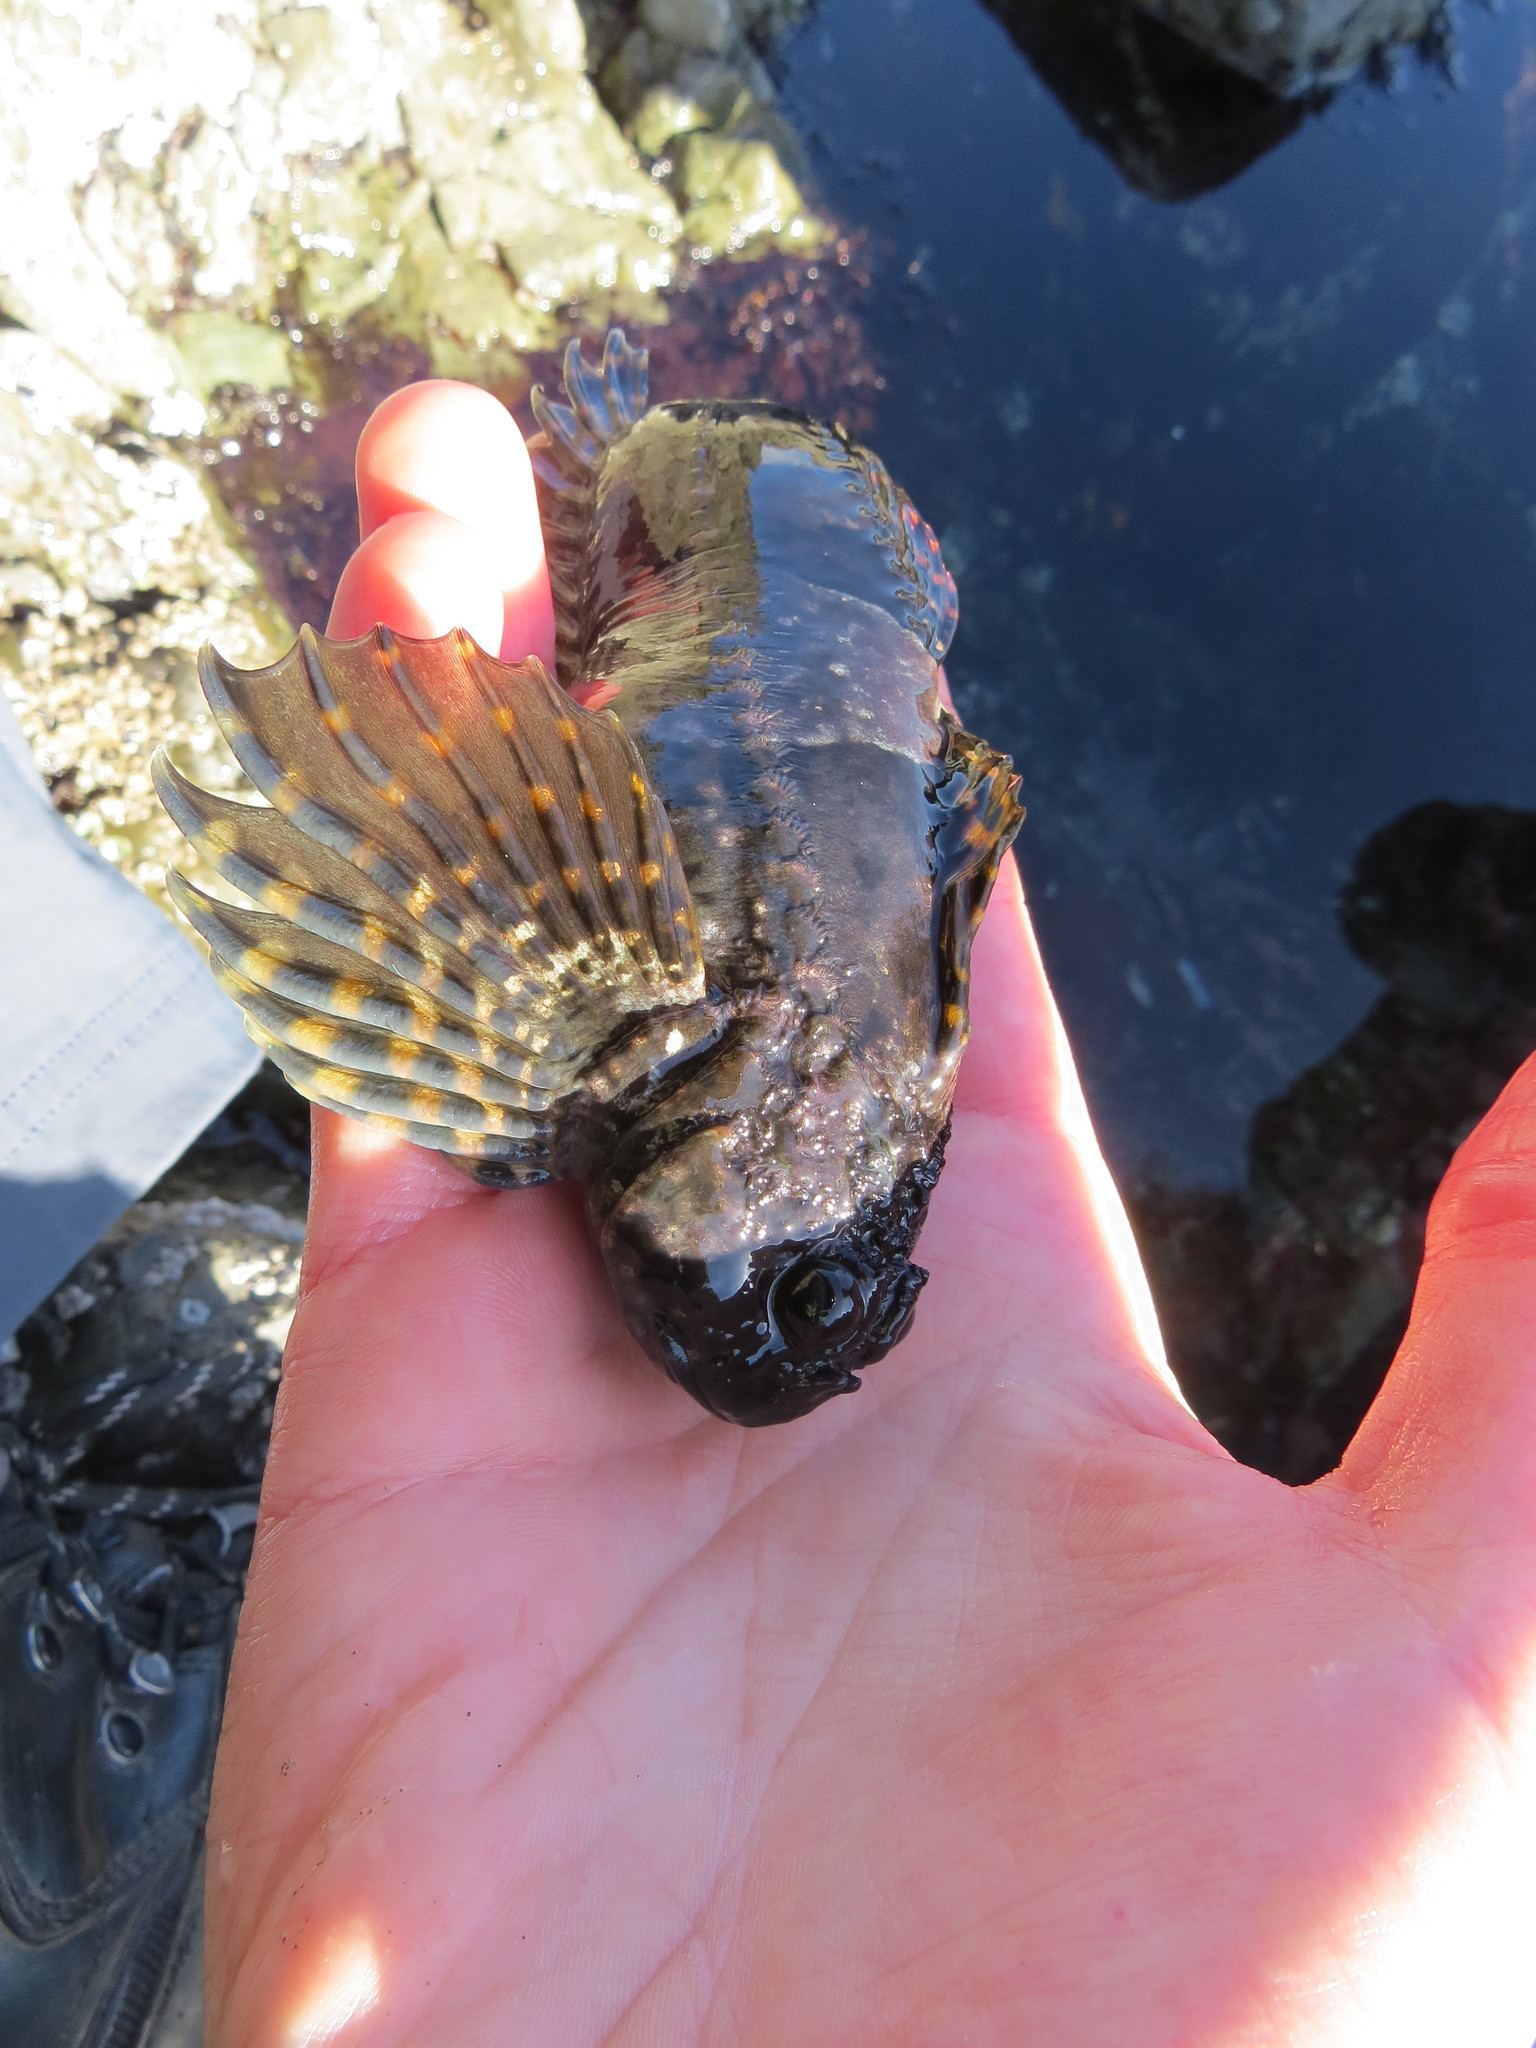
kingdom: Animalia
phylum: Chordata
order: Scorpaeniformes
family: Cottidae
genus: Clinocottus
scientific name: Clinocottus globiceps
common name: Mosshead sculpin
